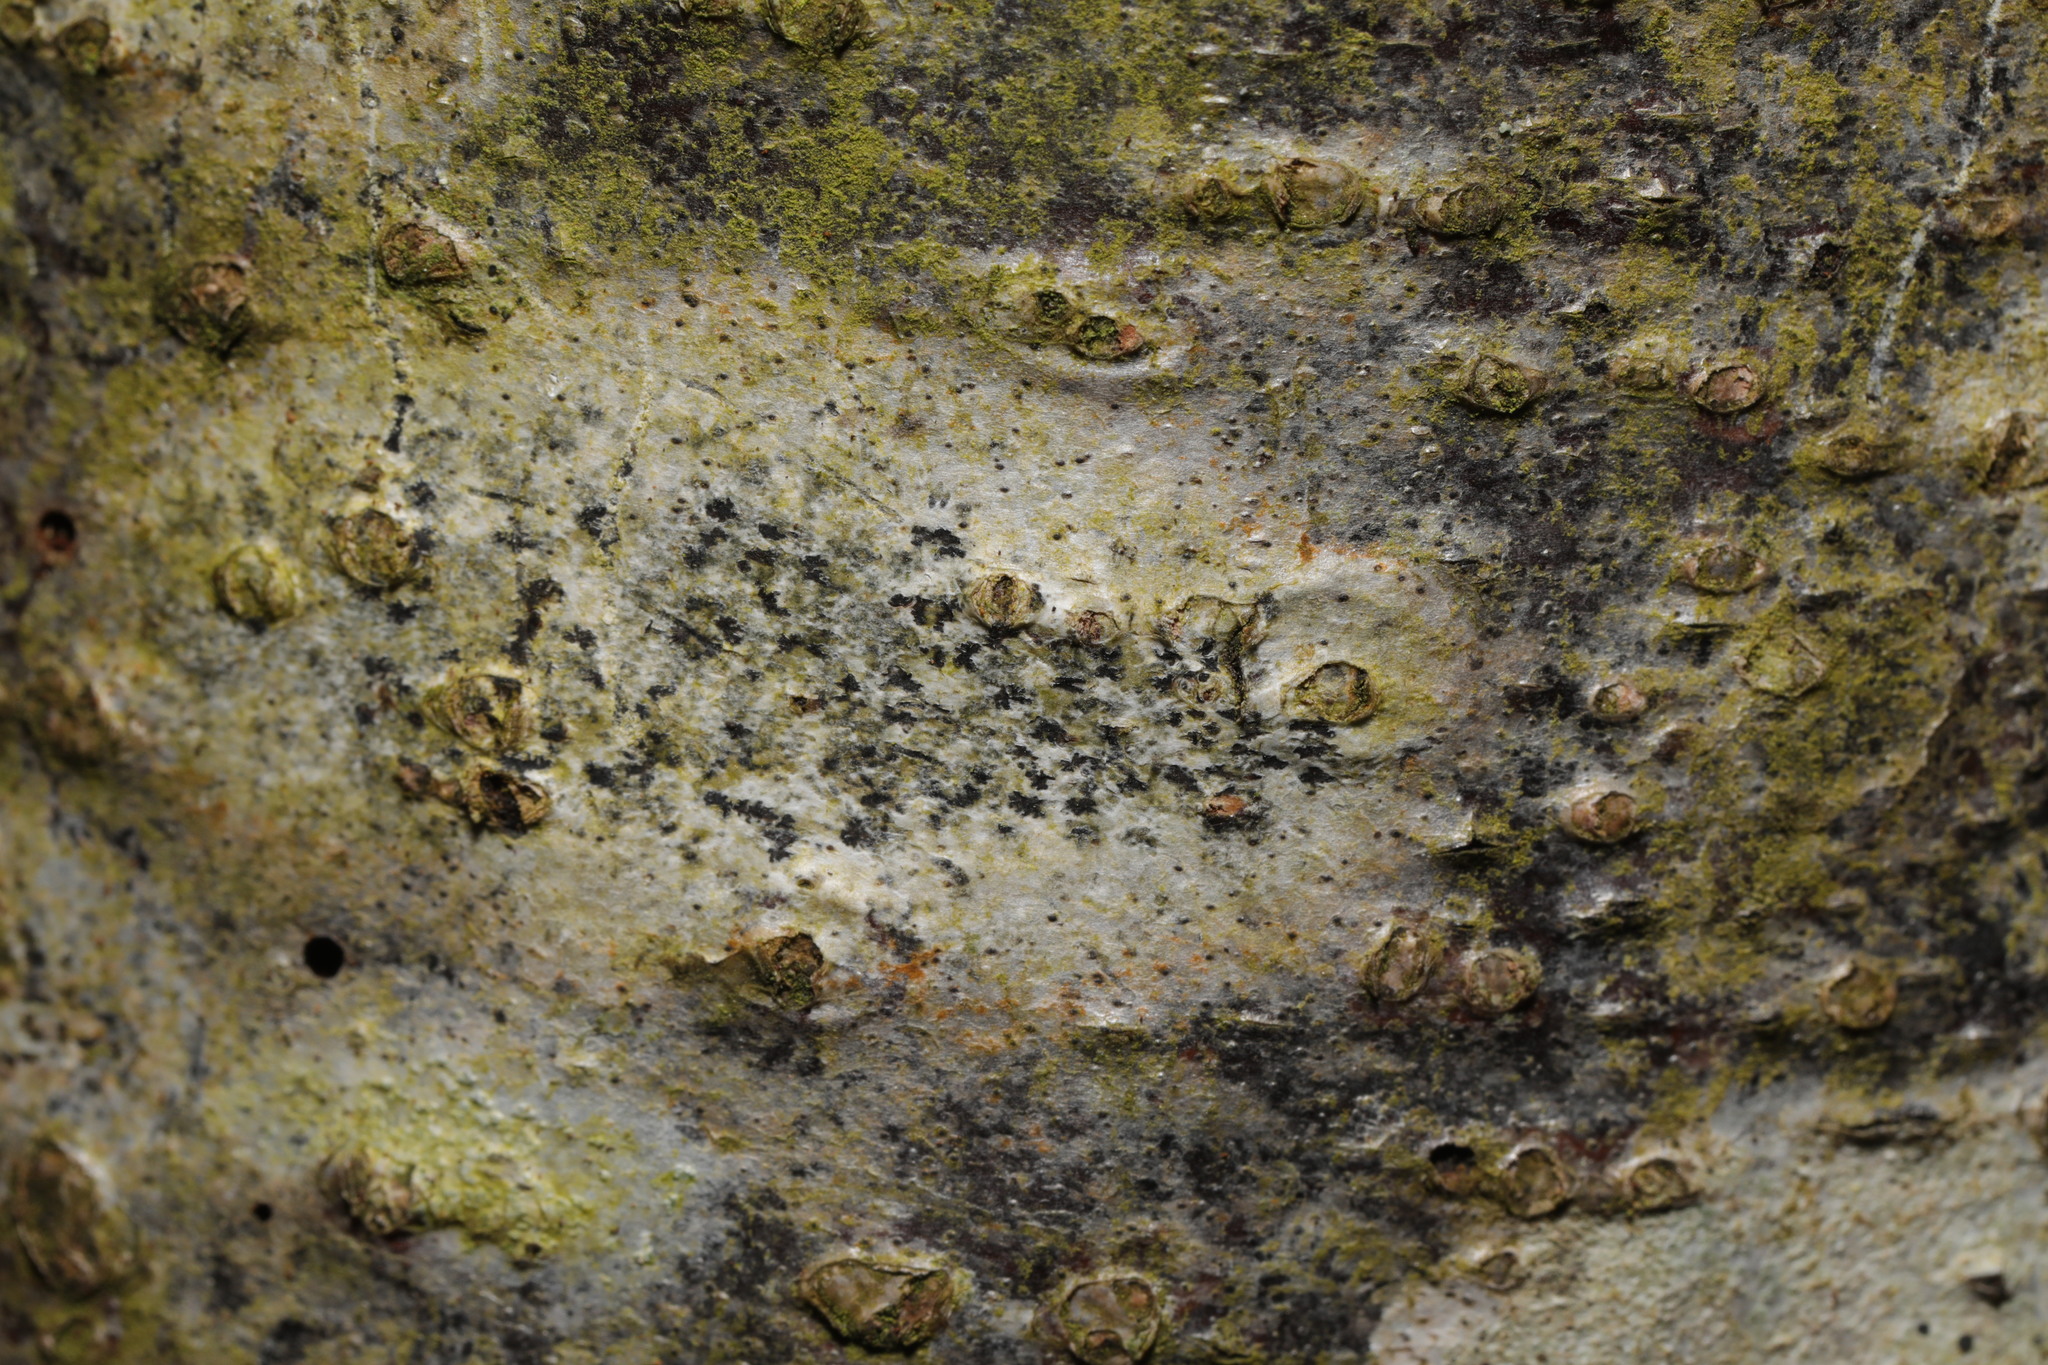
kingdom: Fungi
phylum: Ascomycota
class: Arthoniomycetes
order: Arthoniales
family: Arthoniaceae
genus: Arthonia
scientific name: Arthonia radiata
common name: Asterisk lichen
